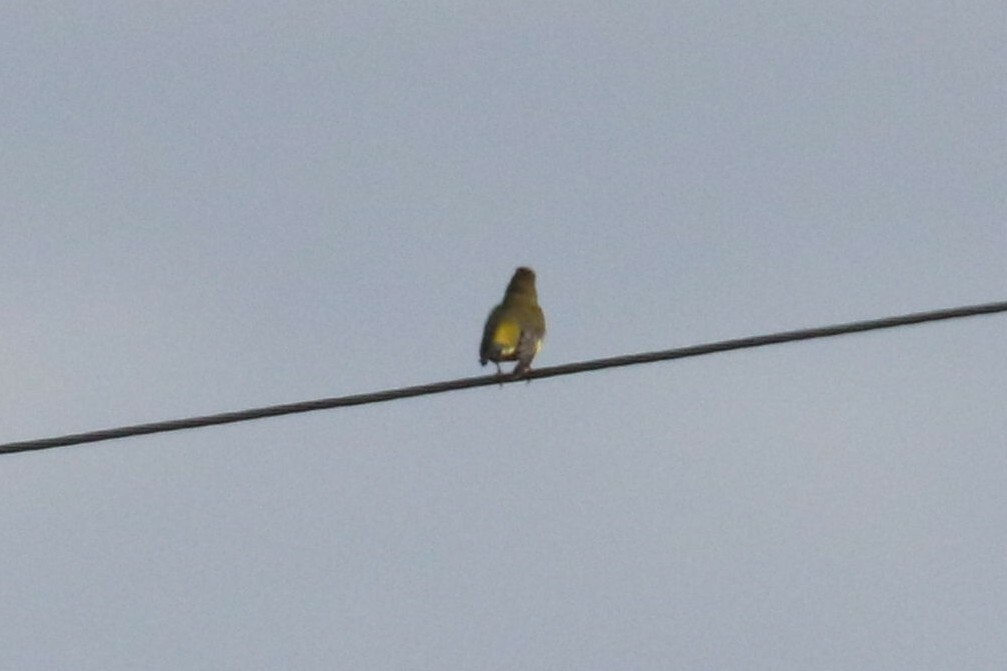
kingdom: Plantae
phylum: Tracheophyta
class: Liliopsida
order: Poales
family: Poaceae
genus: Chloris
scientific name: Chloris chloris
